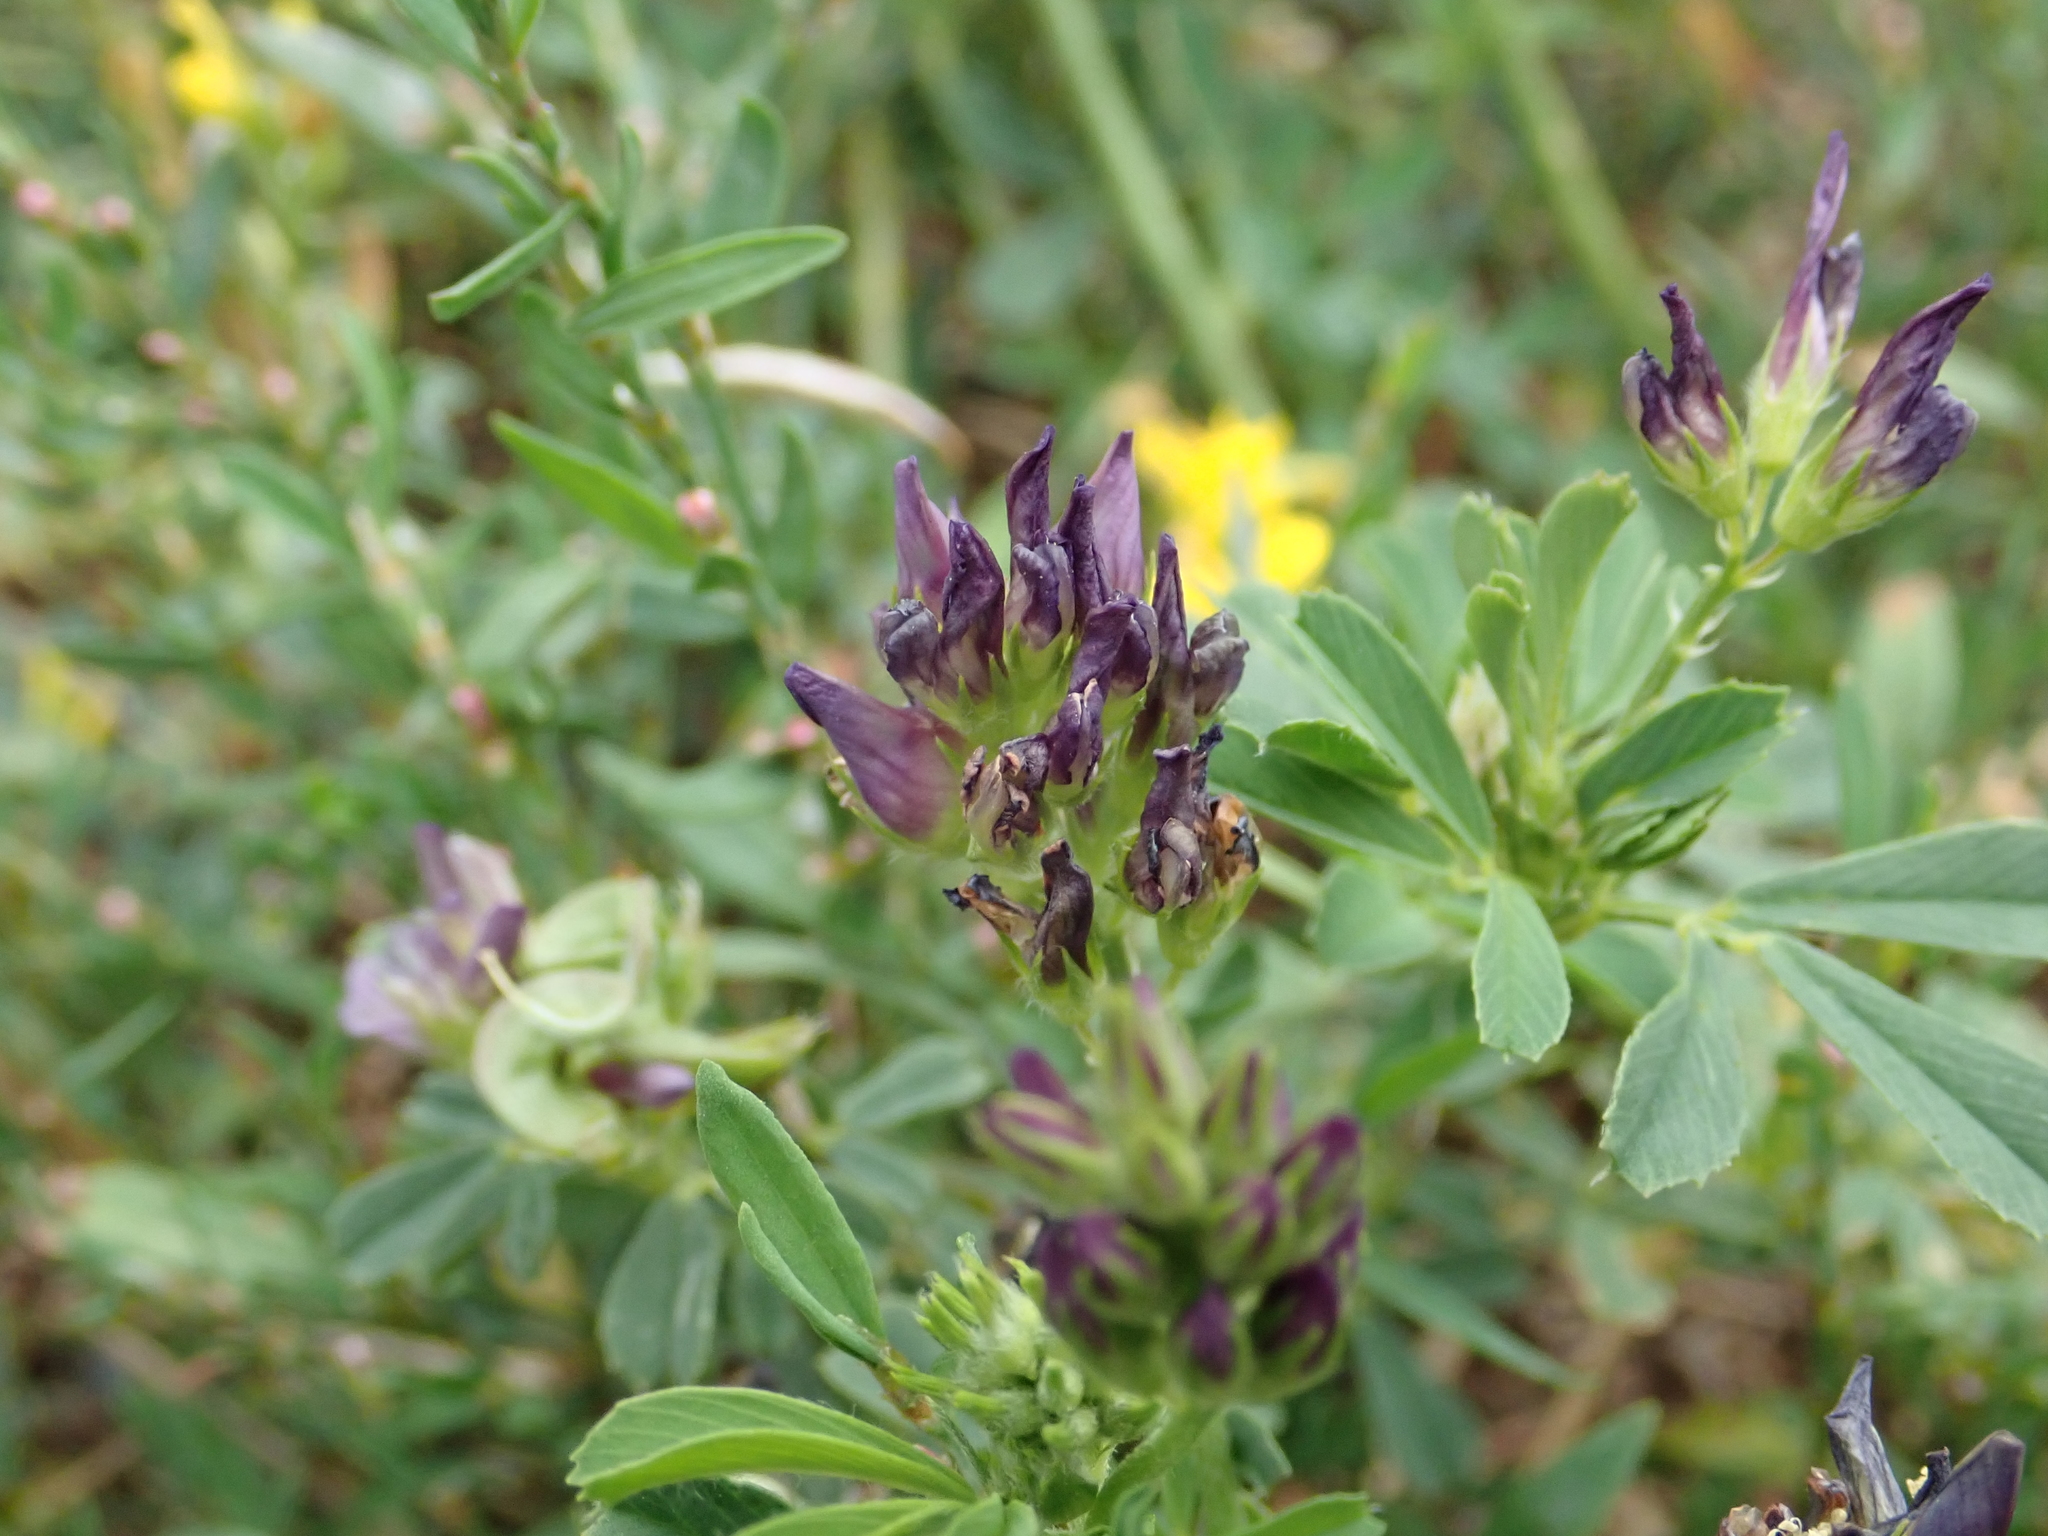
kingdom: Plantae
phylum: Tracheophyta
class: Magnoliopsida
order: Fabales
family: Fabaceae
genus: Medicago
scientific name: Medicago varia
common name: Sand lucerne
